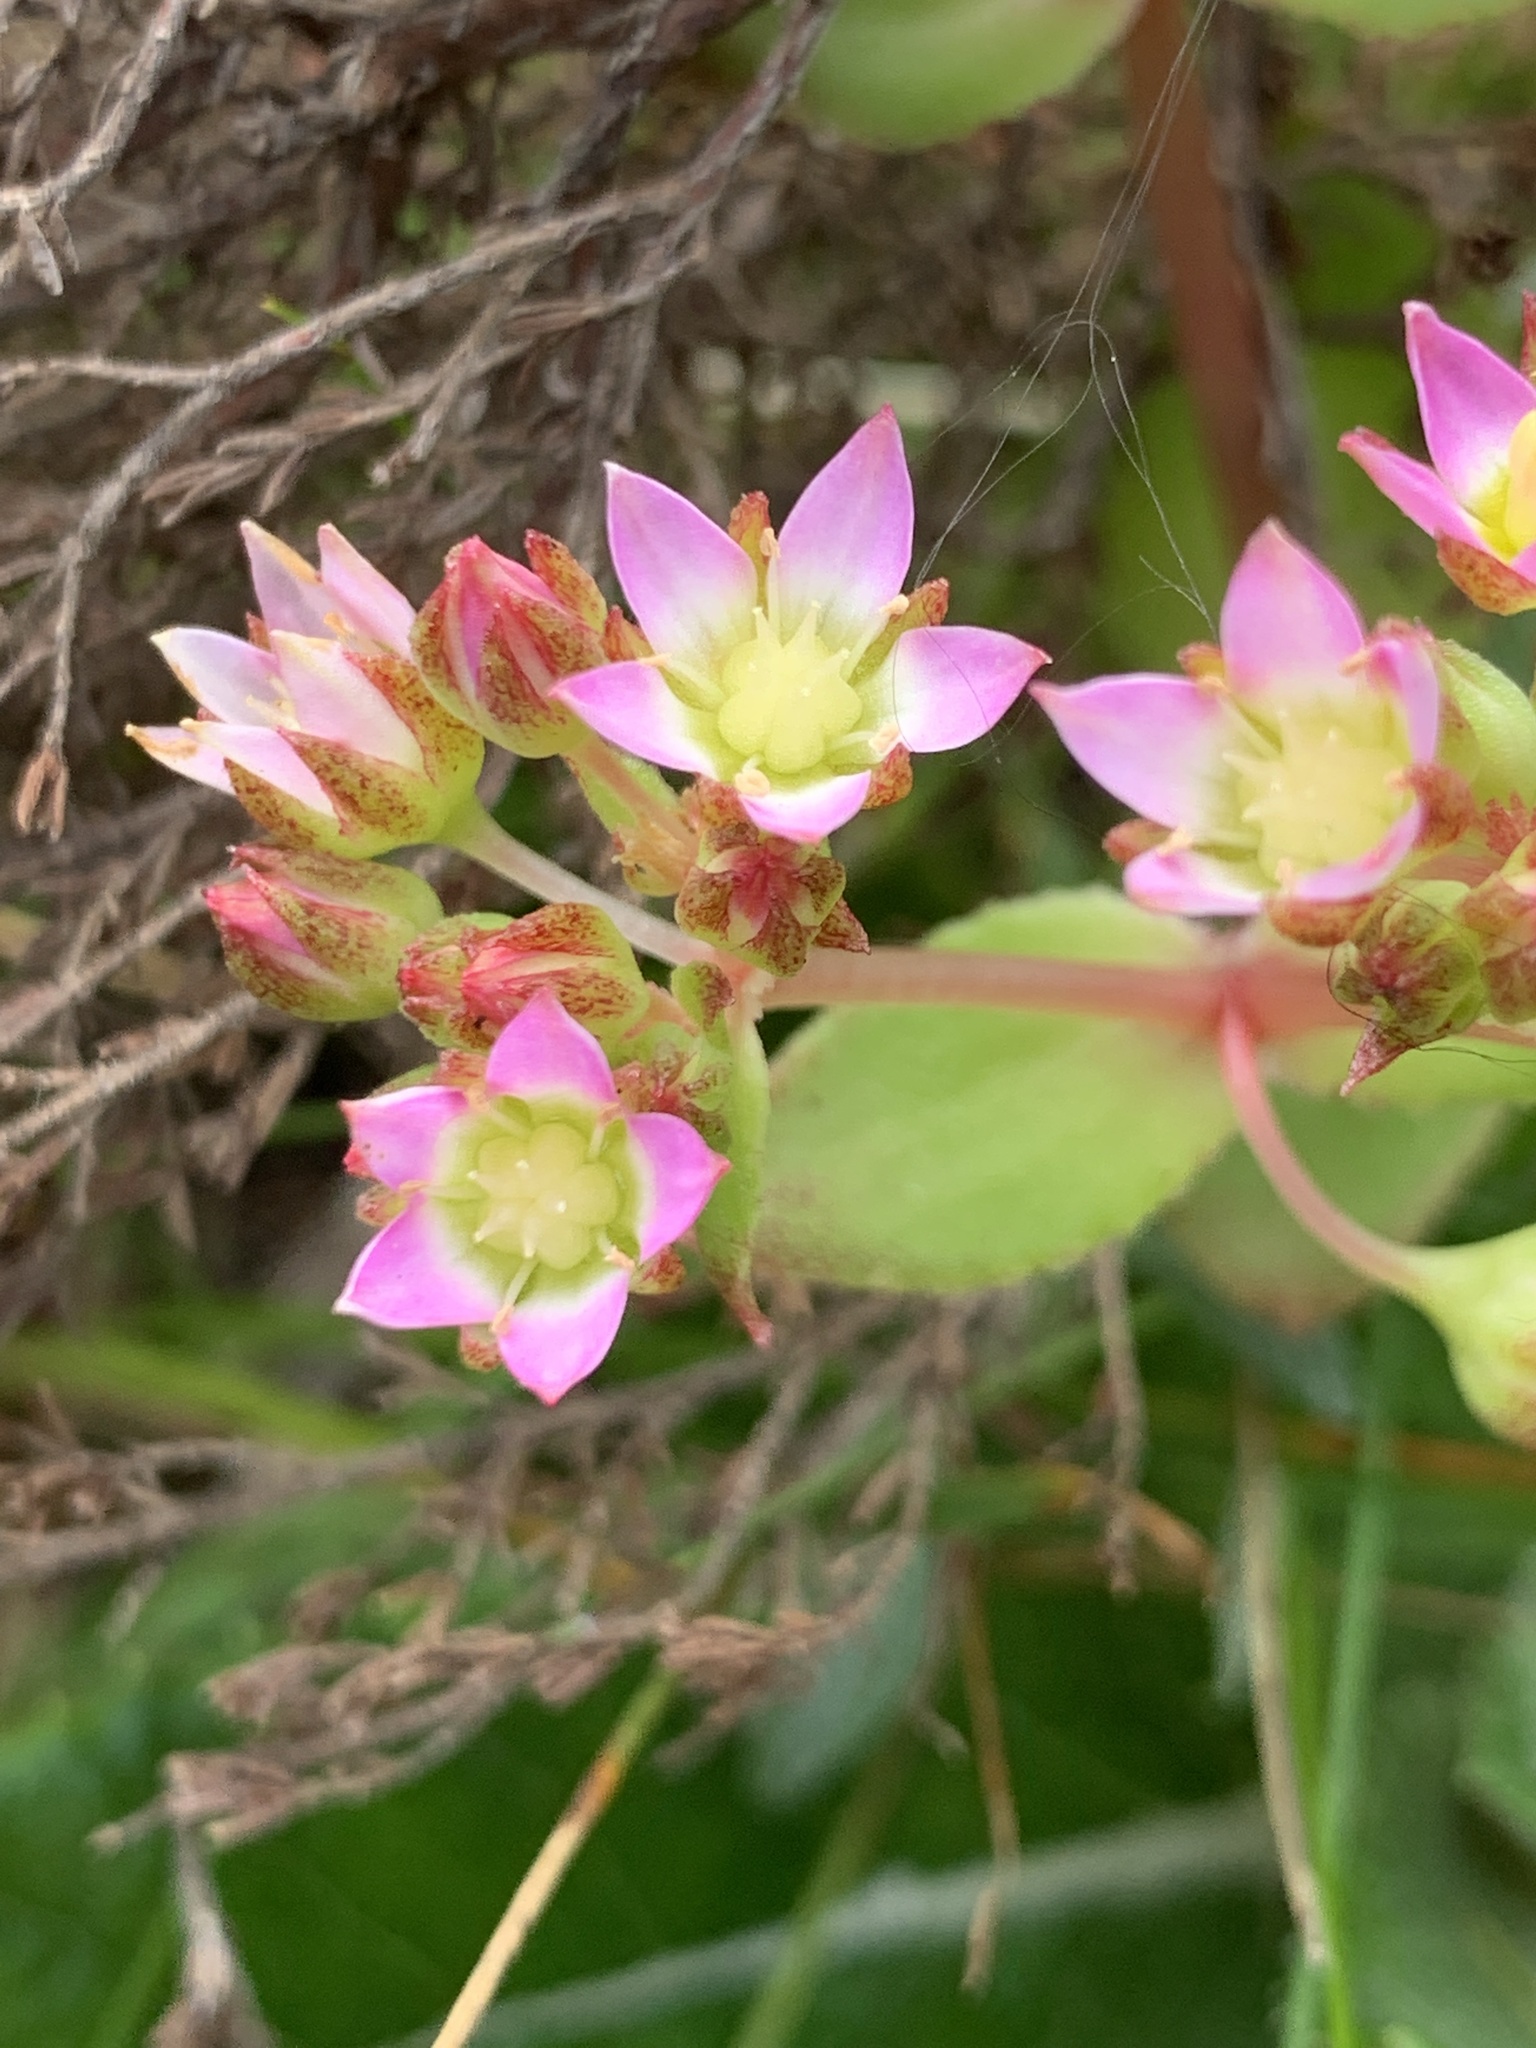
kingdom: Plantae
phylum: Tracheophyta
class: Magnoliopsida
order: Saxifragales
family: Crassulaceae
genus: Crassula
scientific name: Crassula pellucida
